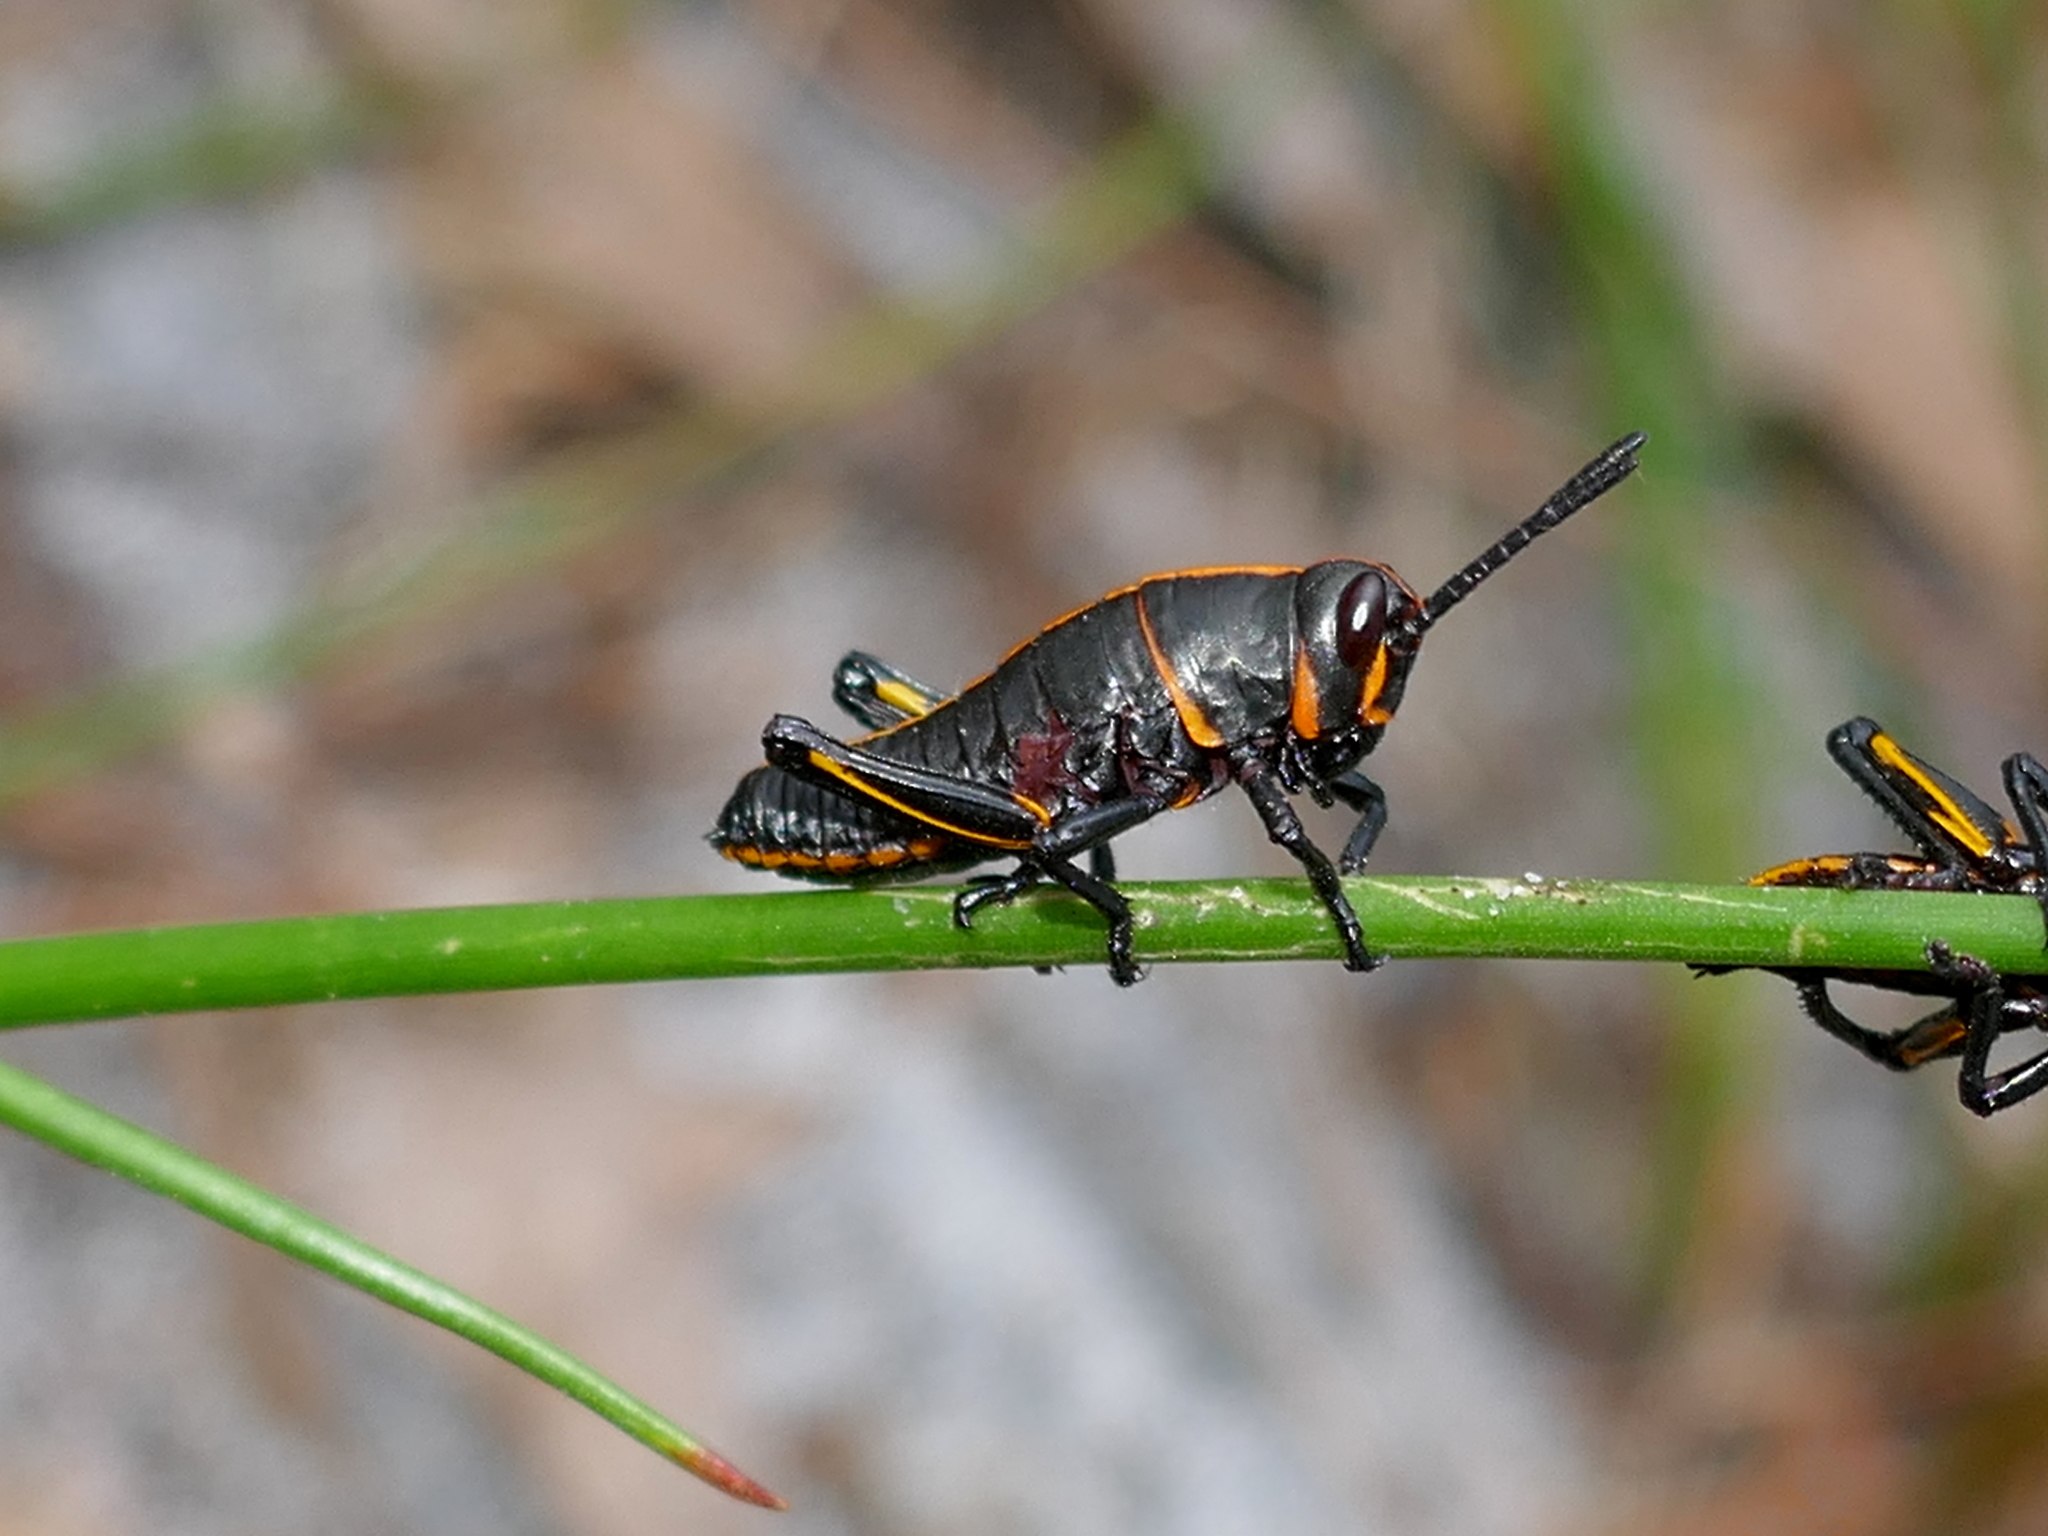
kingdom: Animalia
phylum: Arthropoda
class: Insecta
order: Orthoptera
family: Romaleidae
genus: Romalea
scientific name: Romalea microptera
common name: Eastern lubber grasshopper
